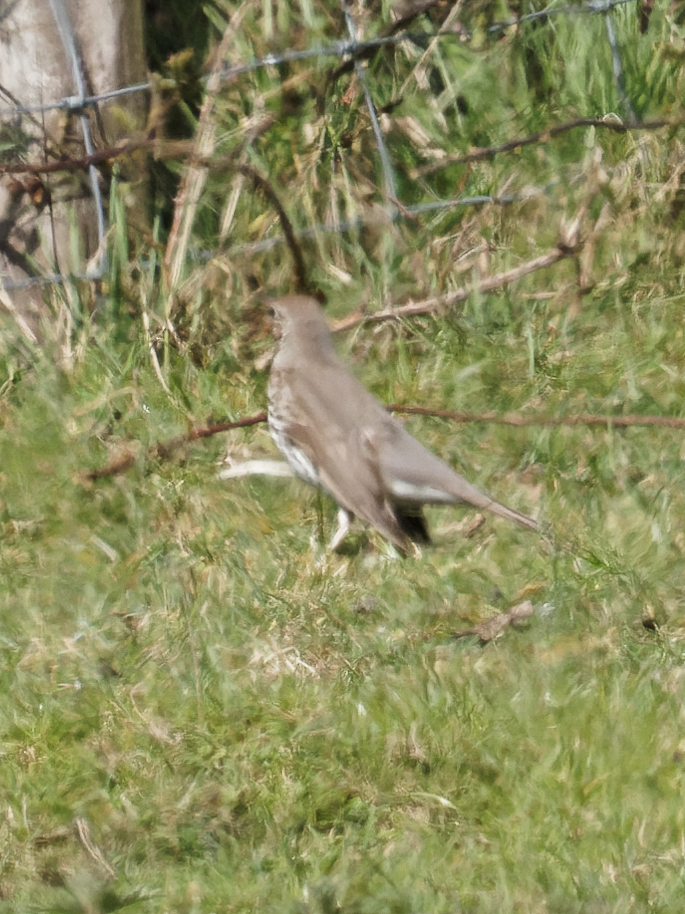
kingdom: Animalia
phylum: Chordata
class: Aves
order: Passeriformes
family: Turdidae
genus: Turdus
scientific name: Turdus philomelos
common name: Song thrush
